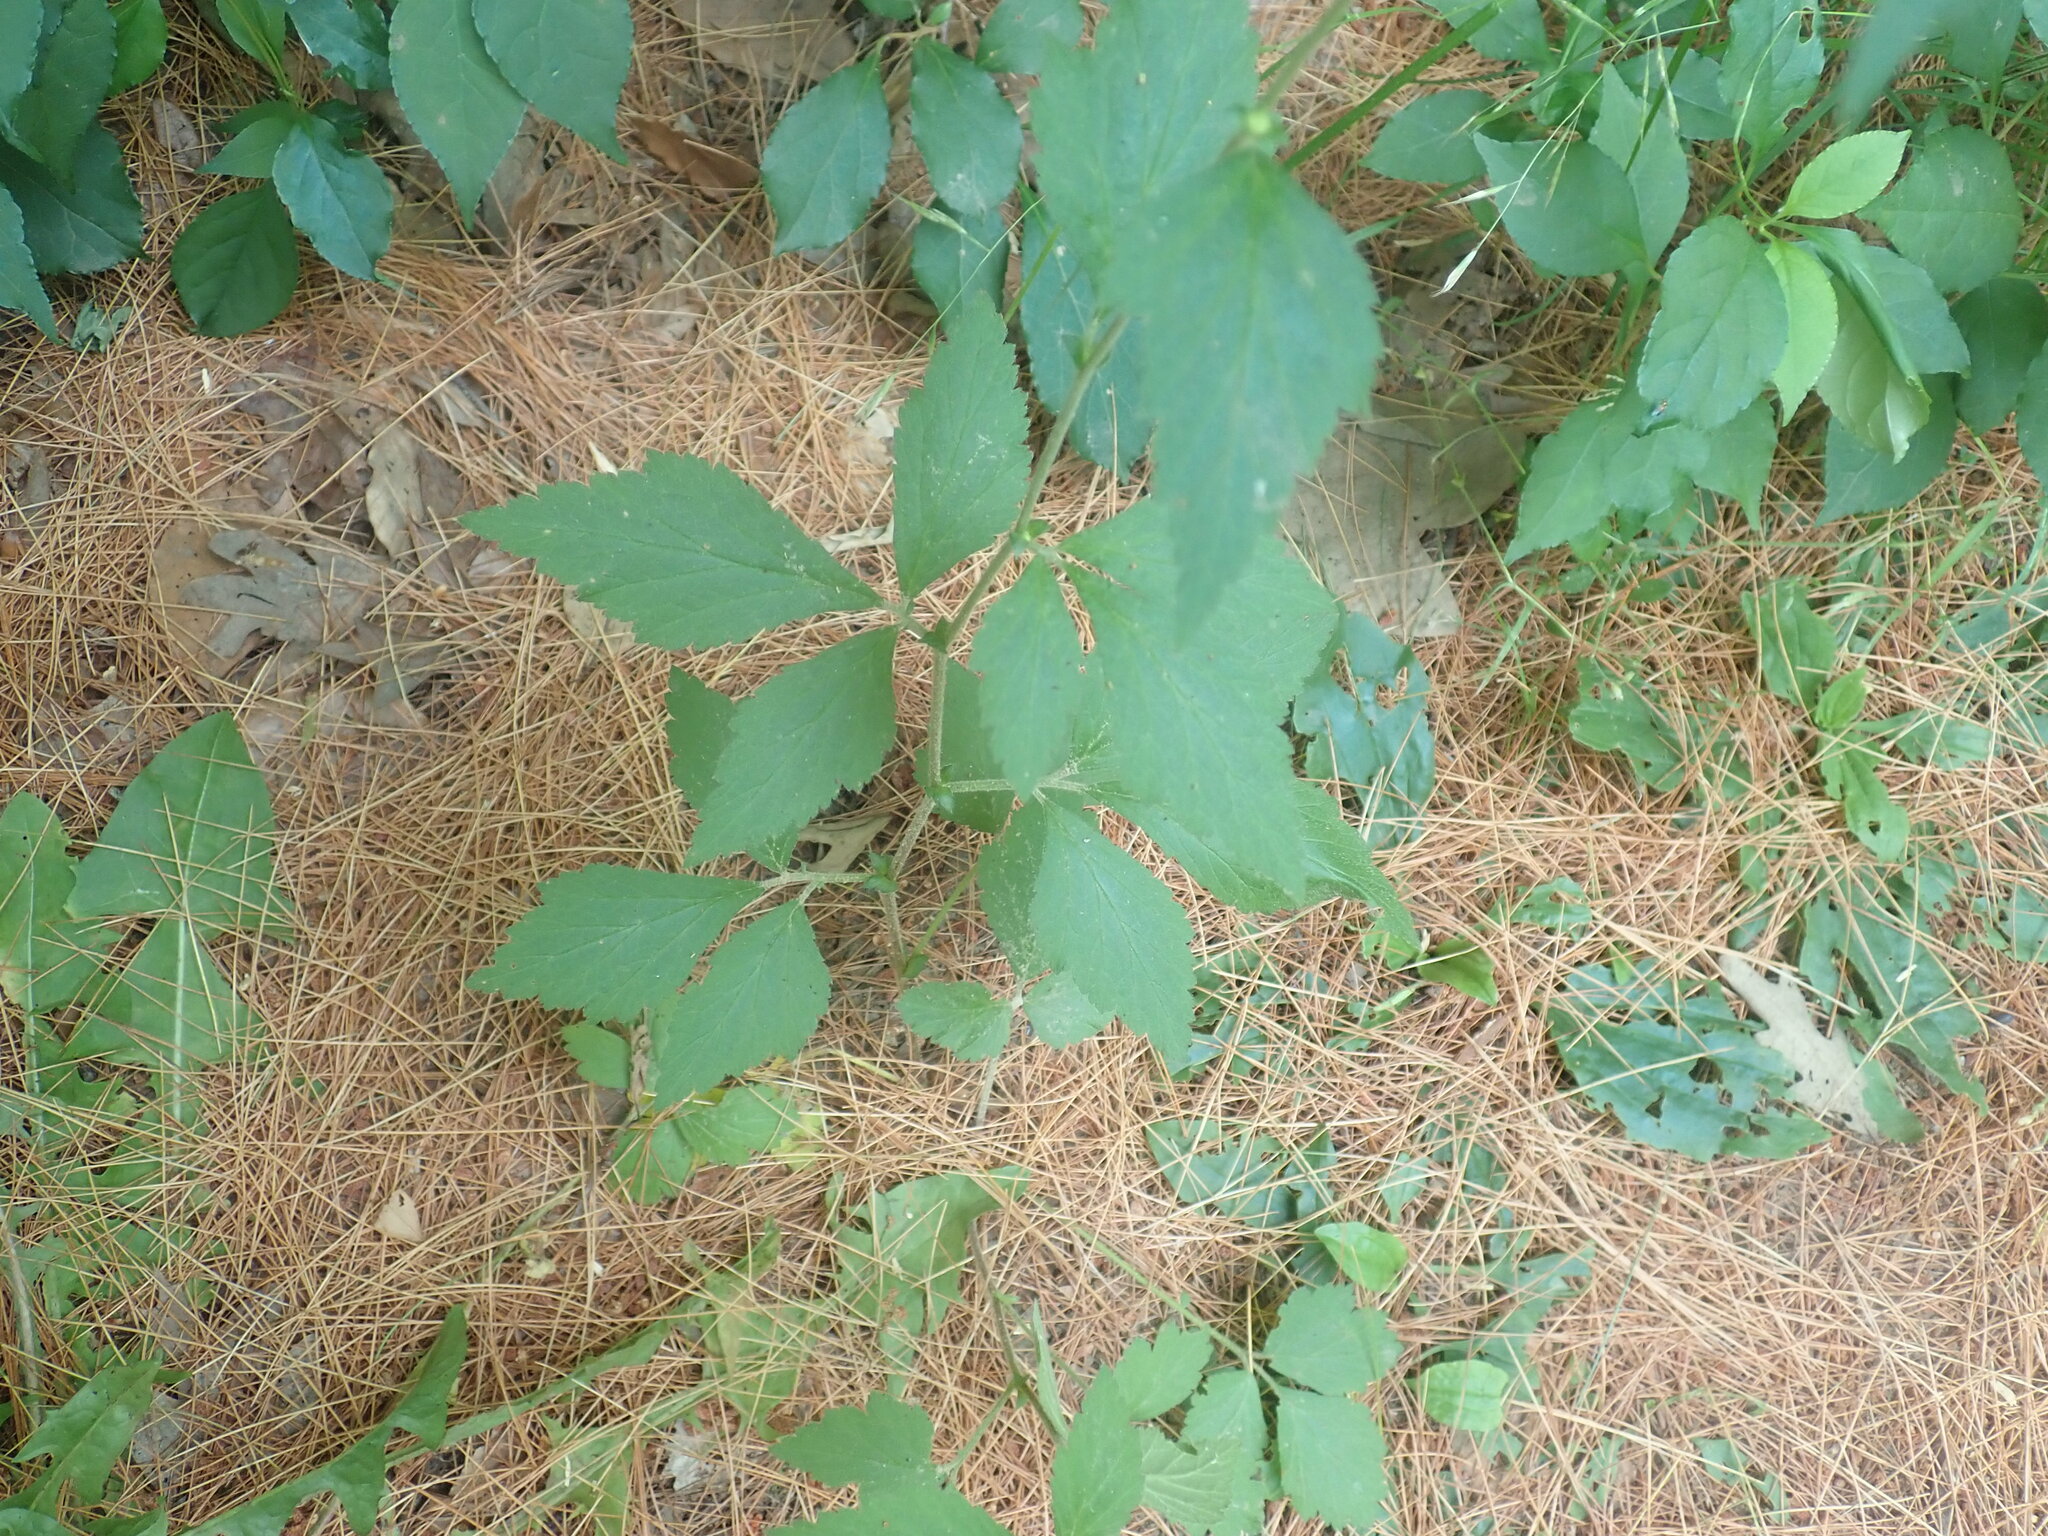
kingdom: Plantae
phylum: Tracheophyta
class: Magnoliopsida
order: Rosales
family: Rosaceae
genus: Geum
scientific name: Geum canadense
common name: White avens
